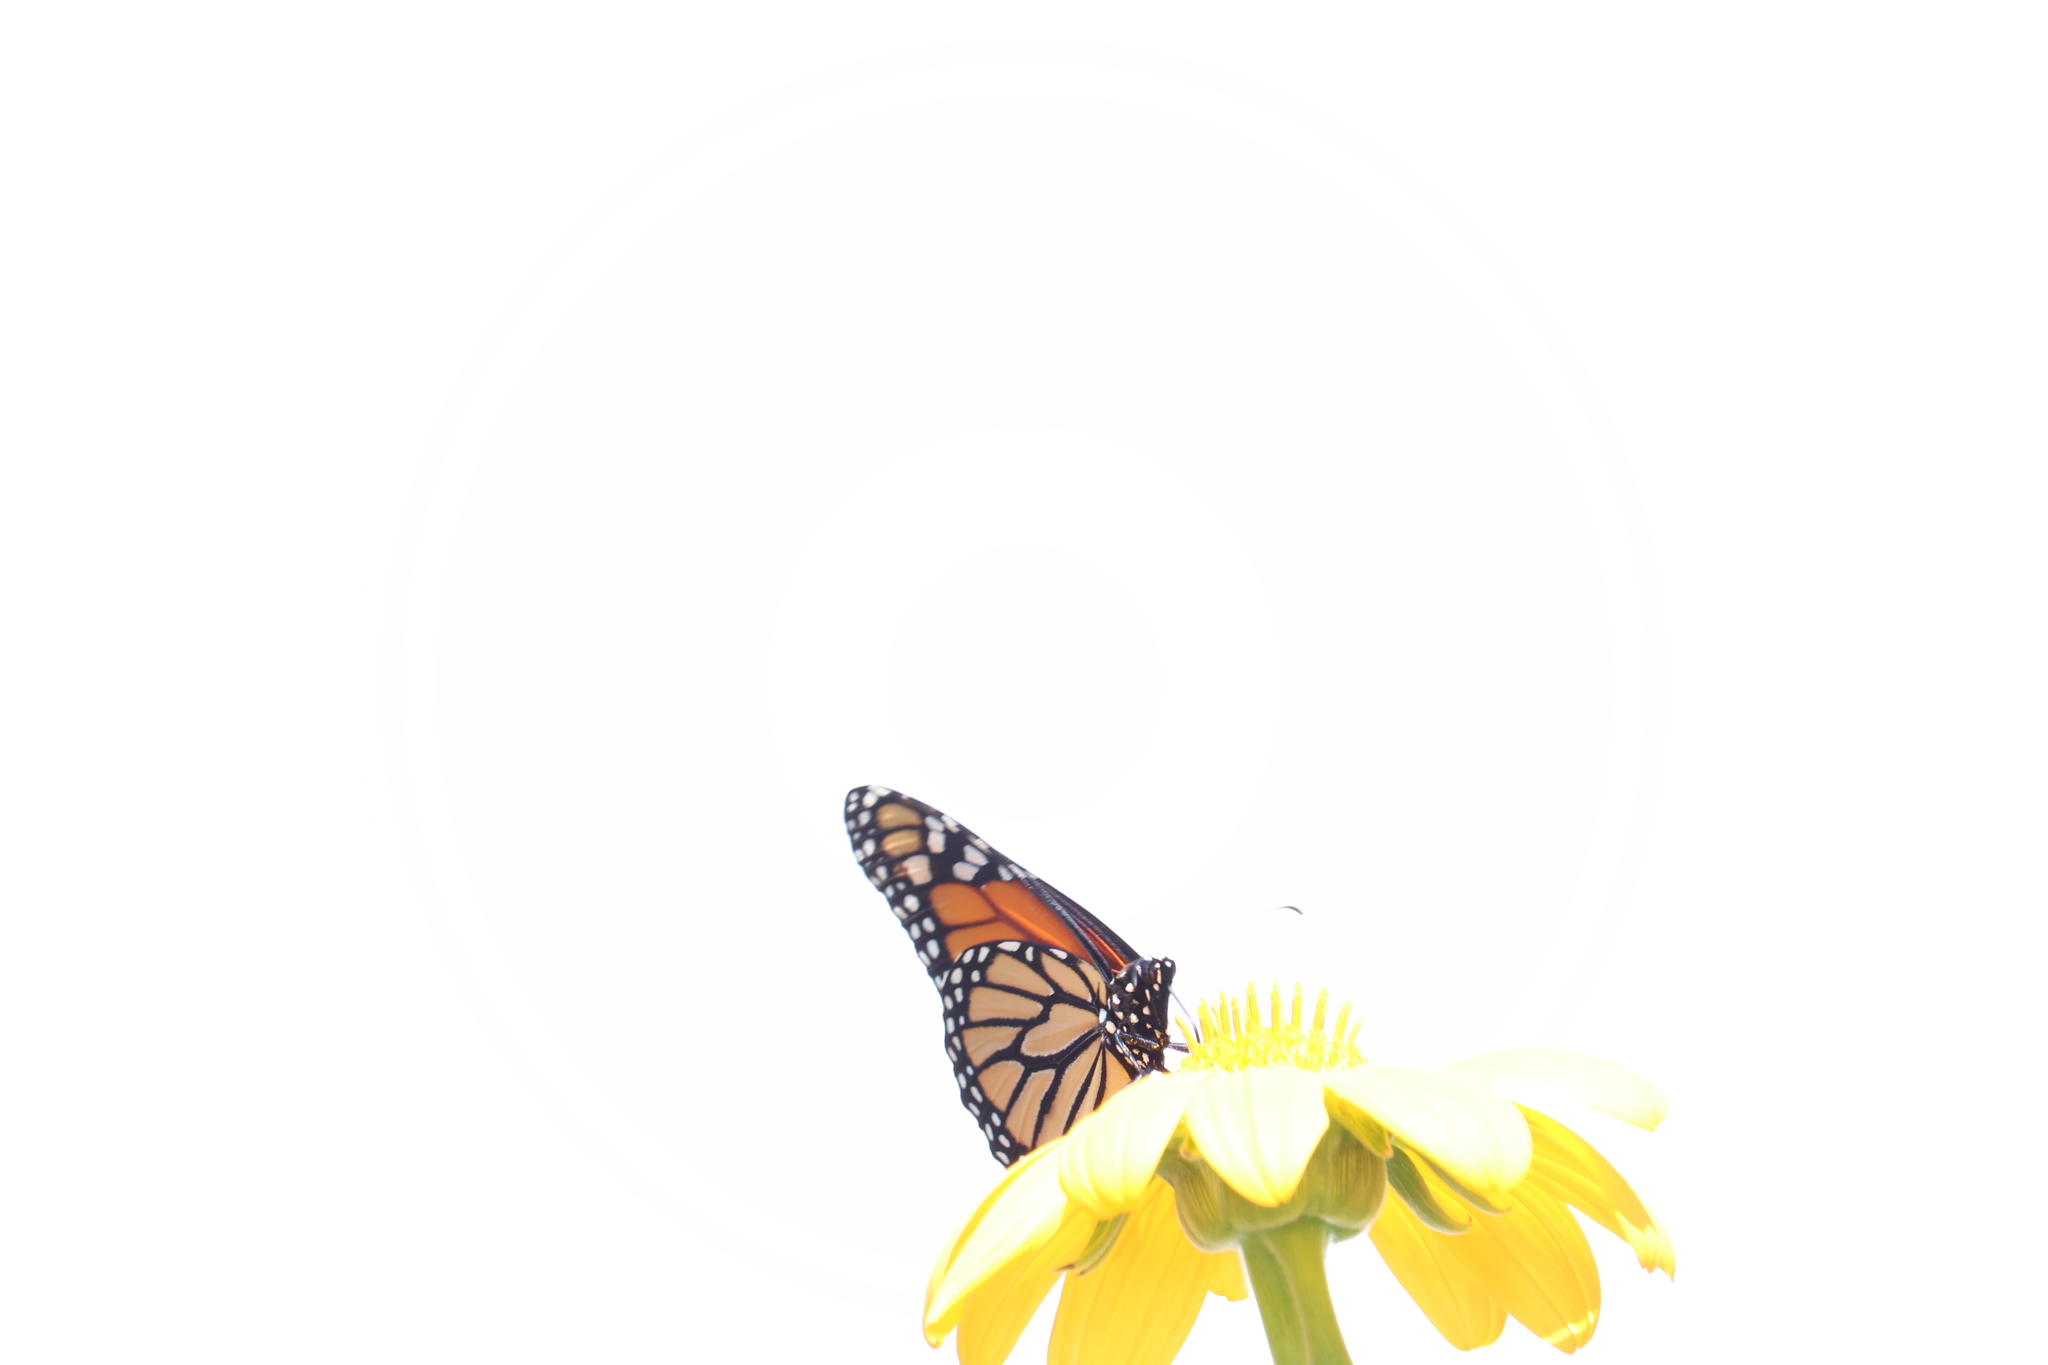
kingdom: Animalia
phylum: Arthropoda
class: Insecta
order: Lepidoptera
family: Nymphalidae
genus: Danaus
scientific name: Danaus plexippus
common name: Monarch
